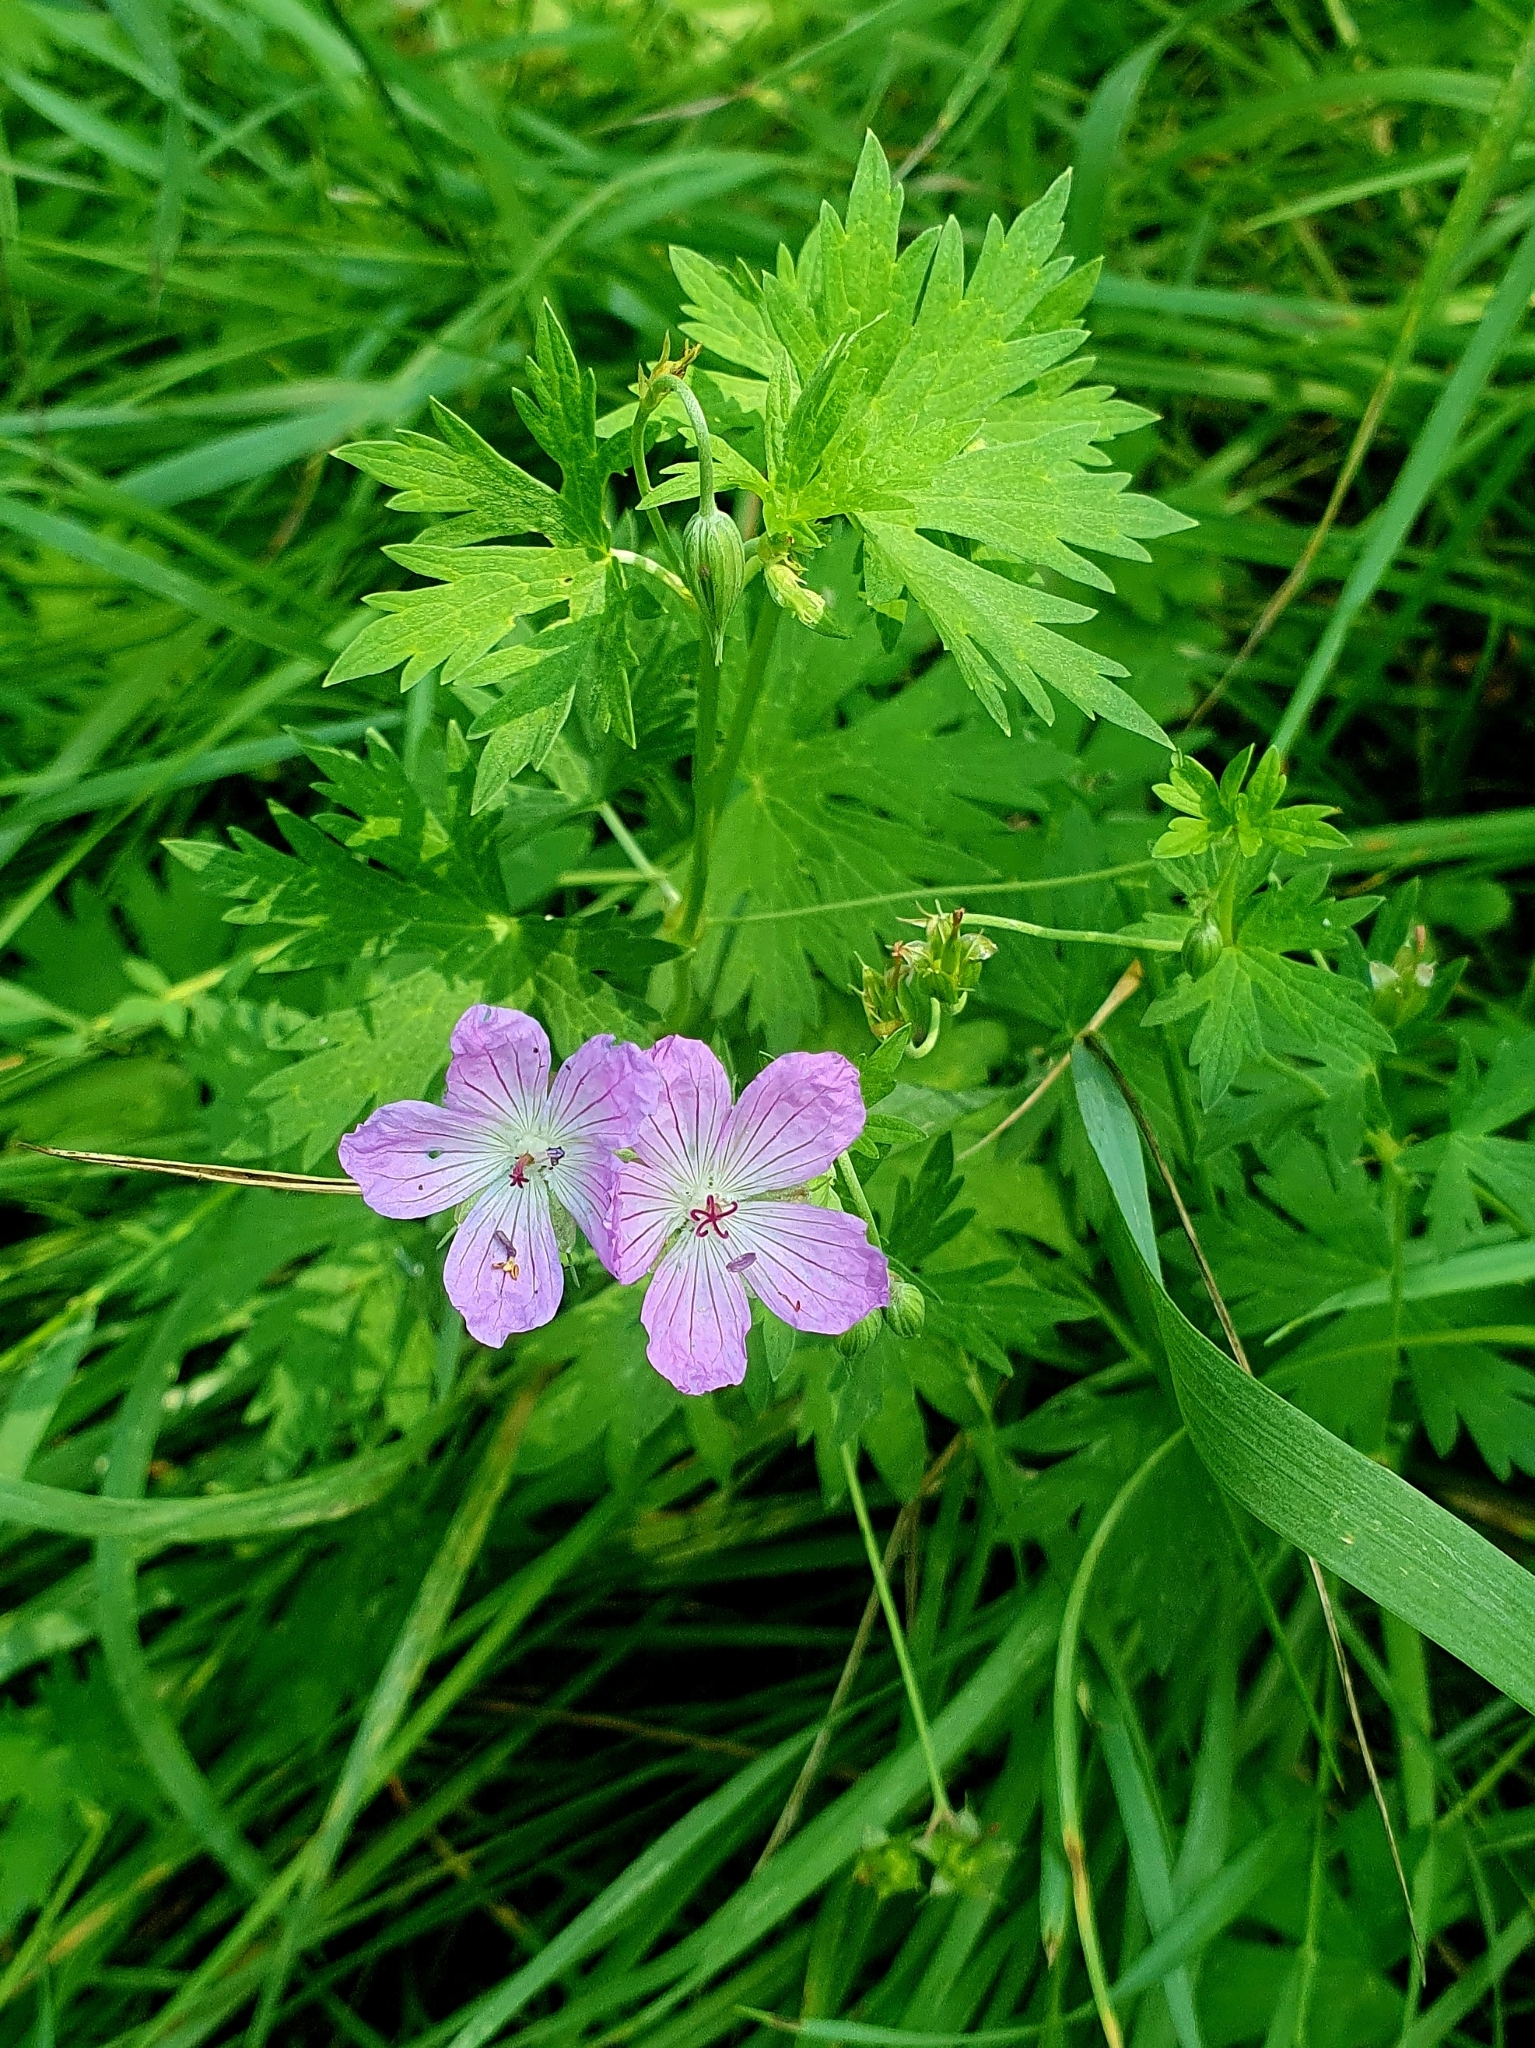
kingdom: Plantae
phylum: Tracheophyta
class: Magnoliopsida
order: Geraniales
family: Geraniaceae
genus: Geranium
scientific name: Geranium collinum
